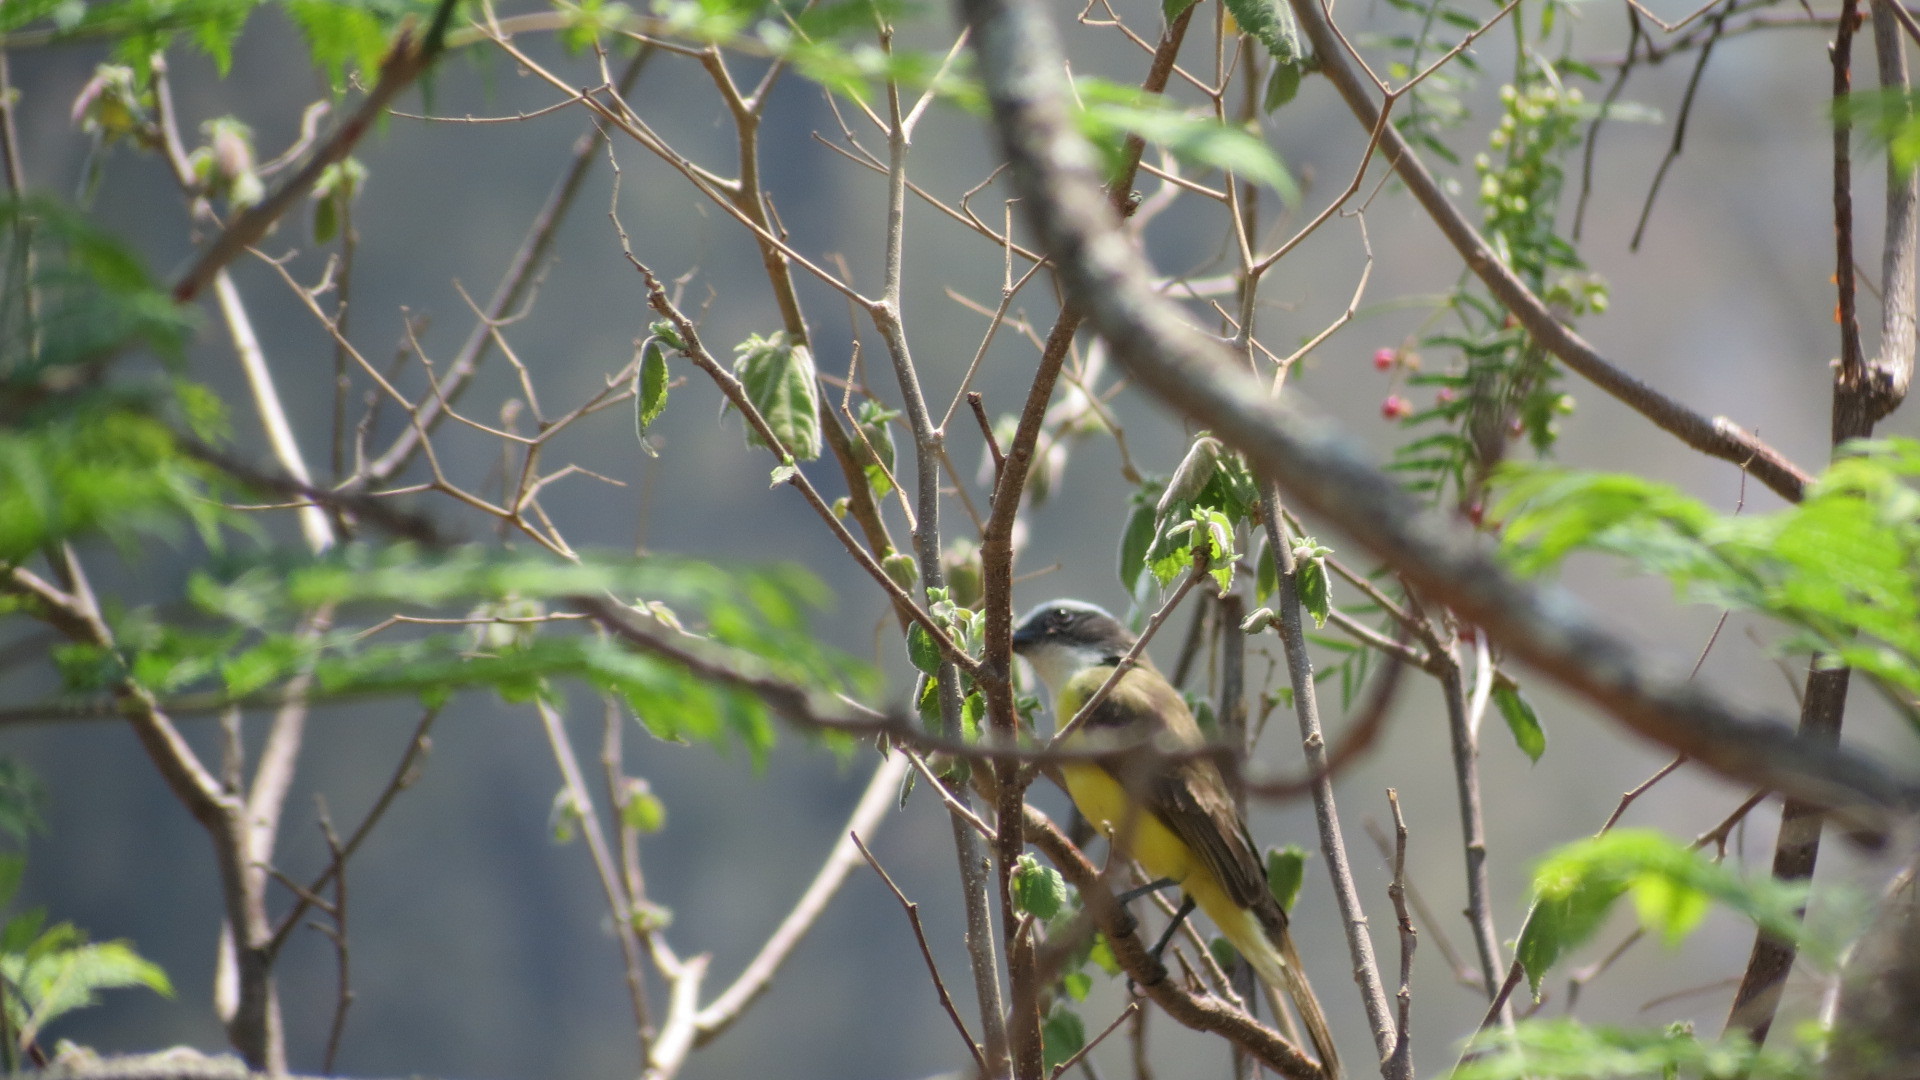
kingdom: Animalia
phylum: Chordata
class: Aves
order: Passeriformes
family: Tyrannidae
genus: Myiozetetes
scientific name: Myiozetetes similis
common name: Social flycatcher
